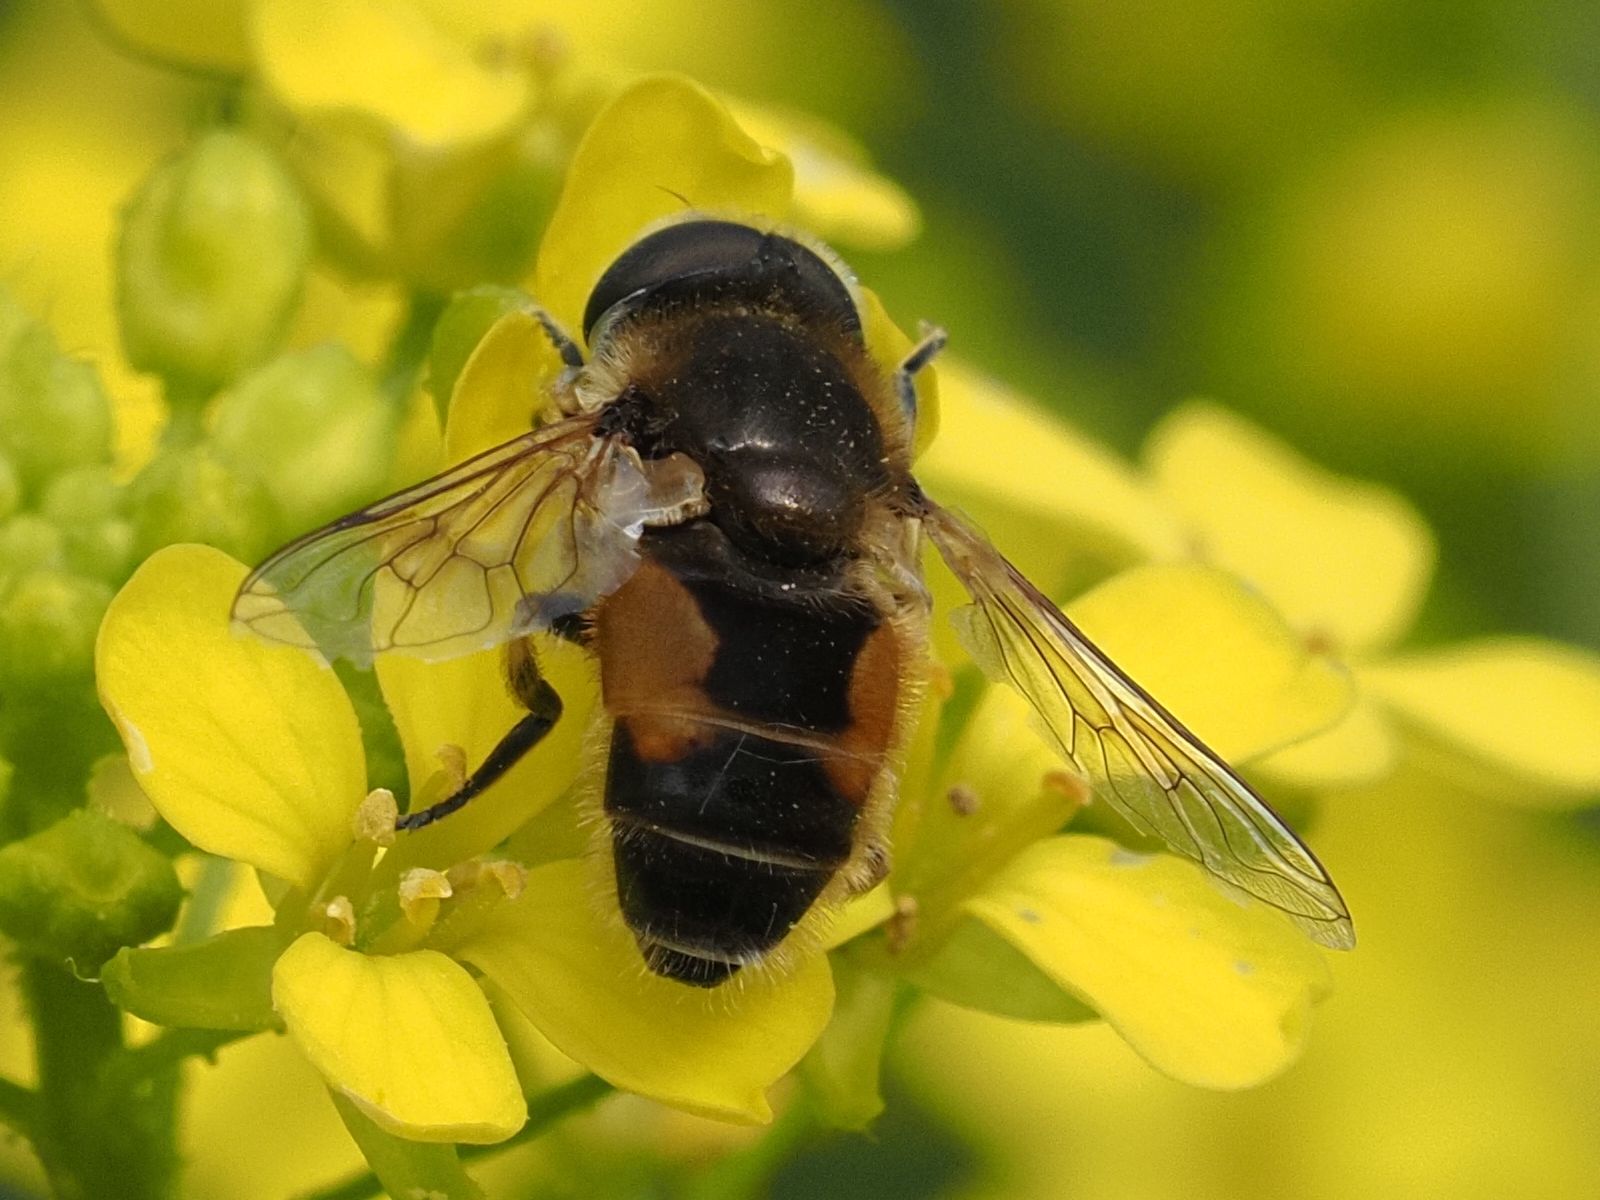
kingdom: Animalia
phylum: Arthropoda
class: Insecta
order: Diptera
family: Syrphidae
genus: Eristalis
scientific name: Eristalis arbustorum
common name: Hover fly
